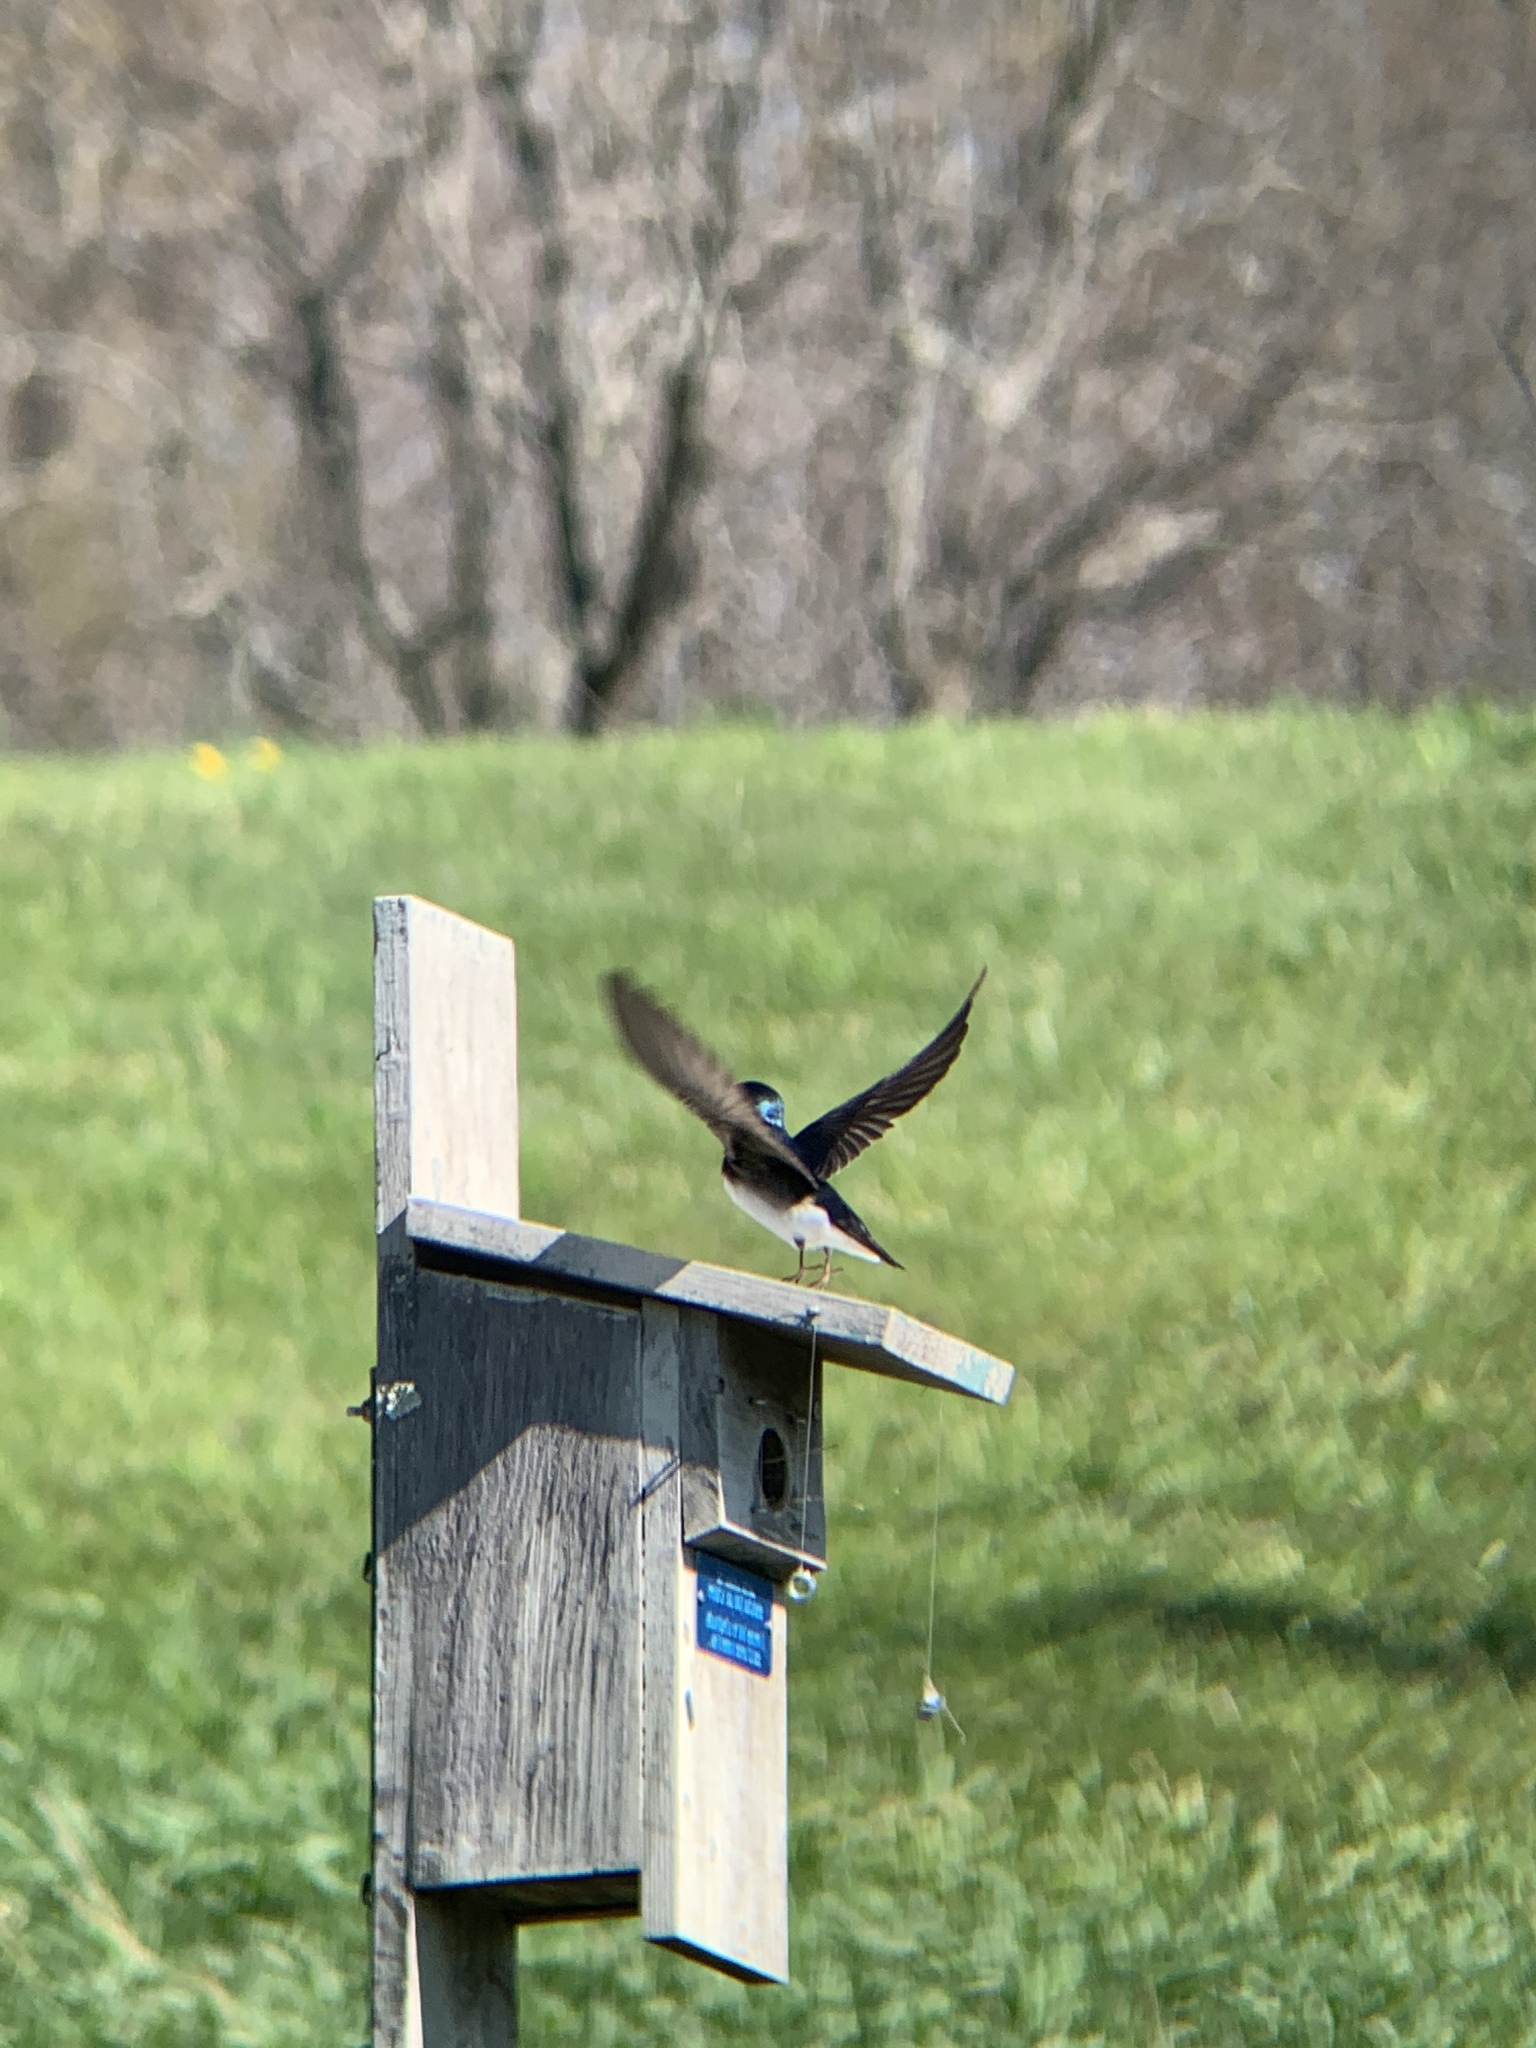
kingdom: Animalia
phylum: Chordata
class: Aves
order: Passeriformes
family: Hirundinidae
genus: Tachycineta
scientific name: Tachycineta bicolor
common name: Tree swallow
